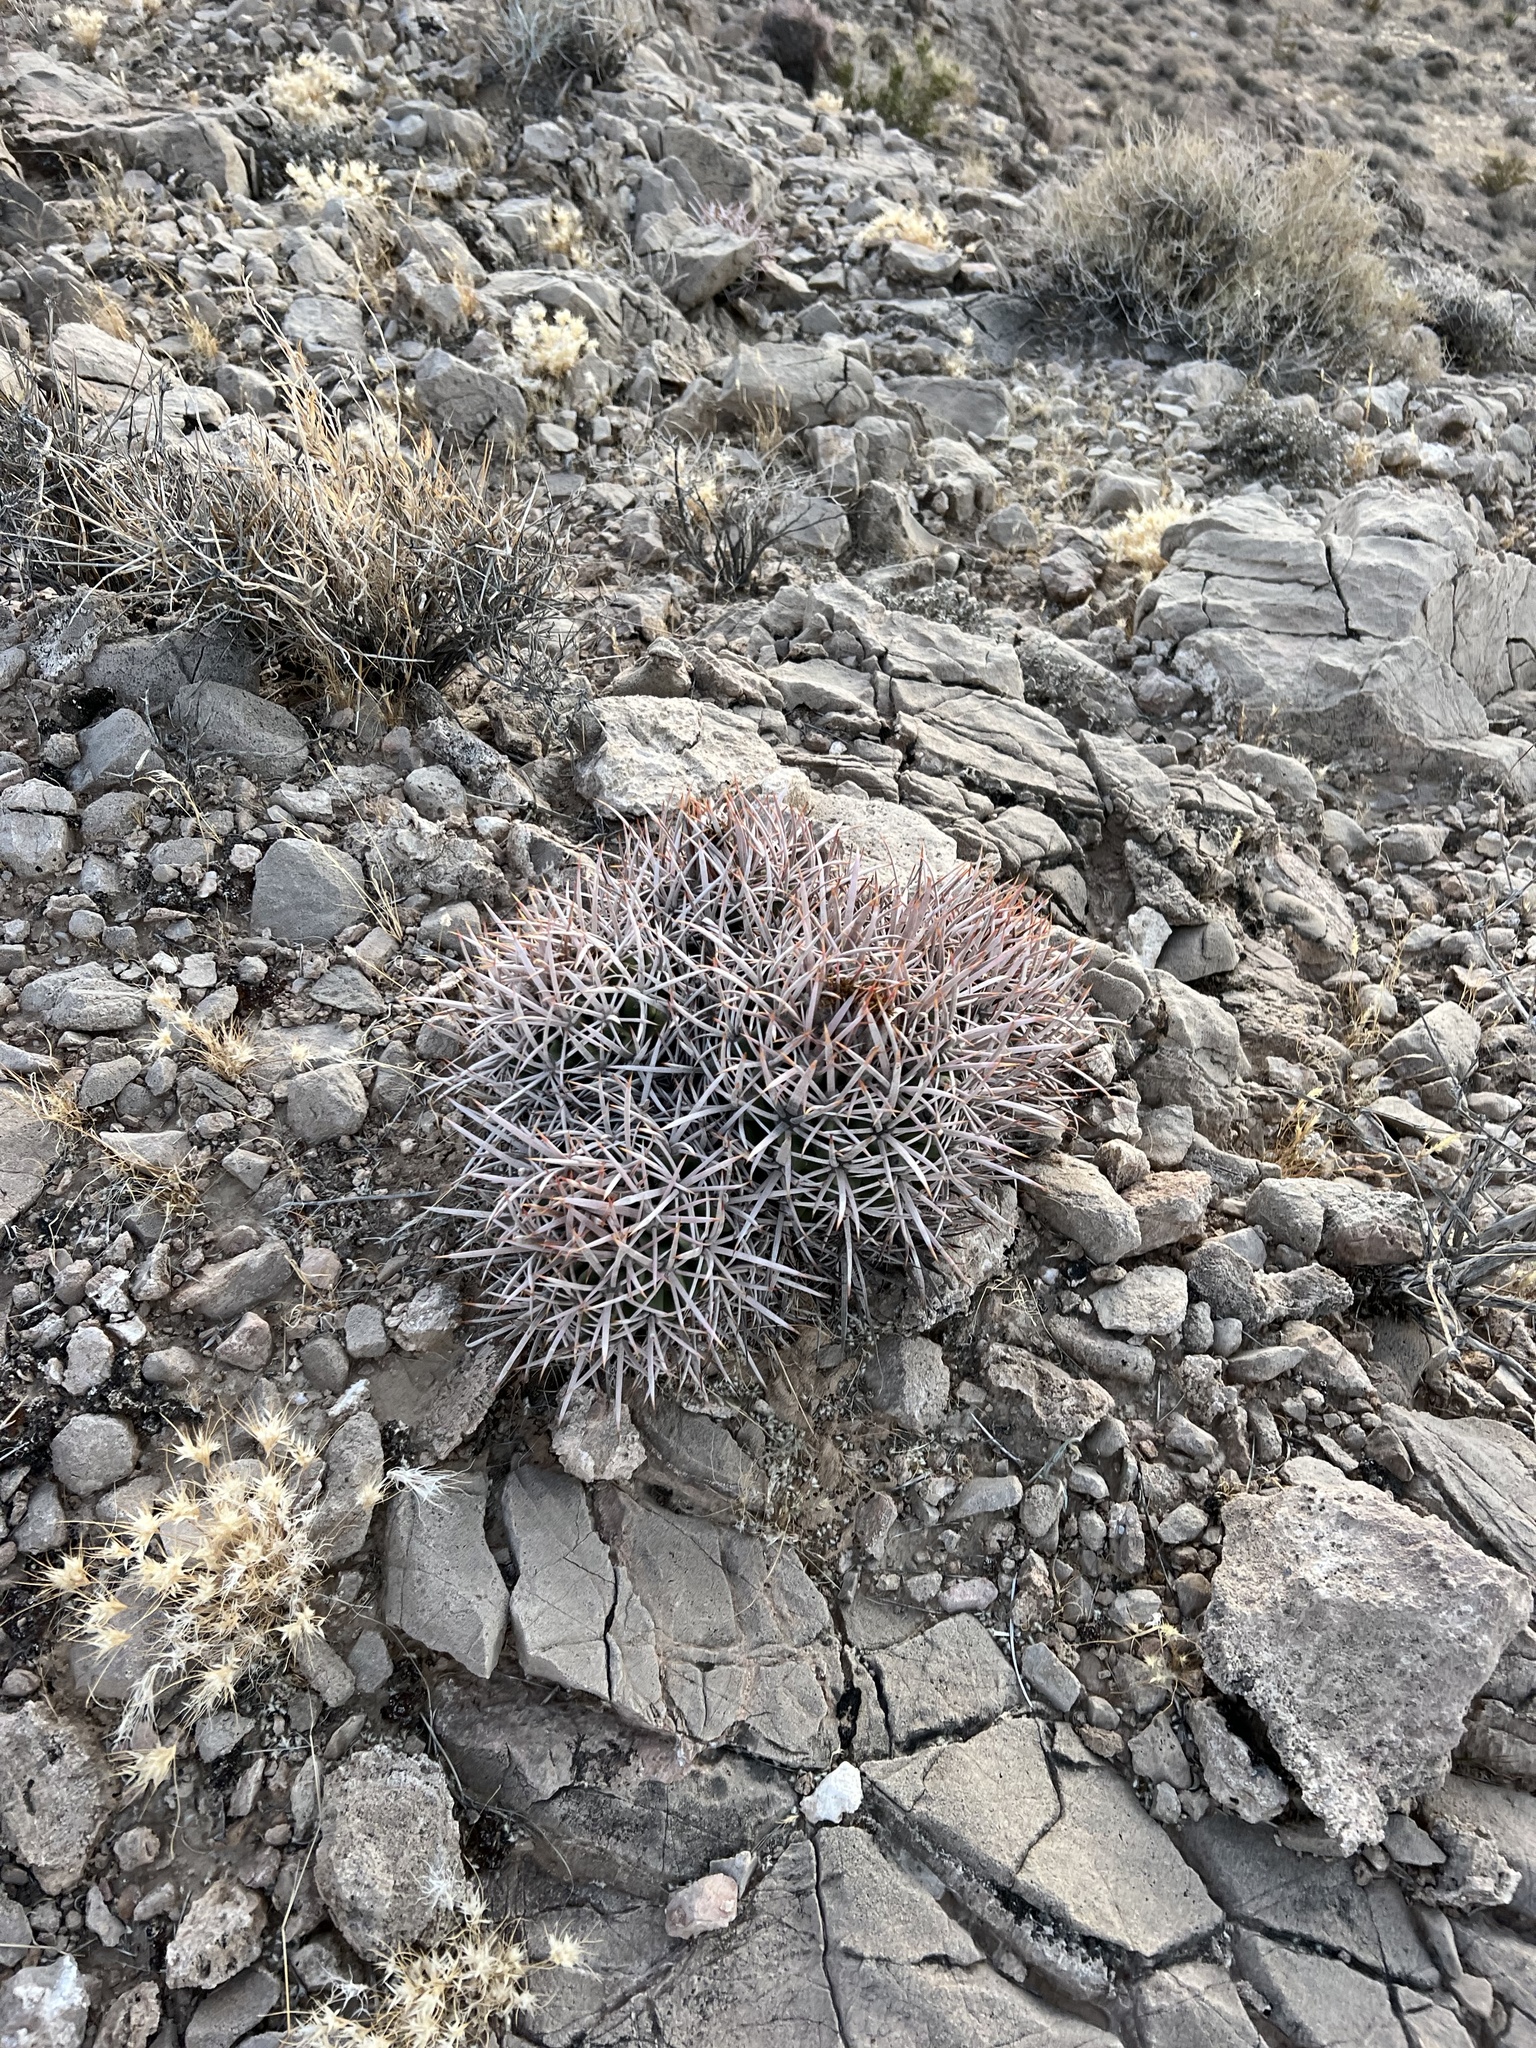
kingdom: Plantae
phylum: Tracheophyta
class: Magnoliopsida
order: Caryophyllales
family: Cactaceae
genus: Echinocactus
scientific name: Echinocactus polycephalus
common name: Cottontop cactus
